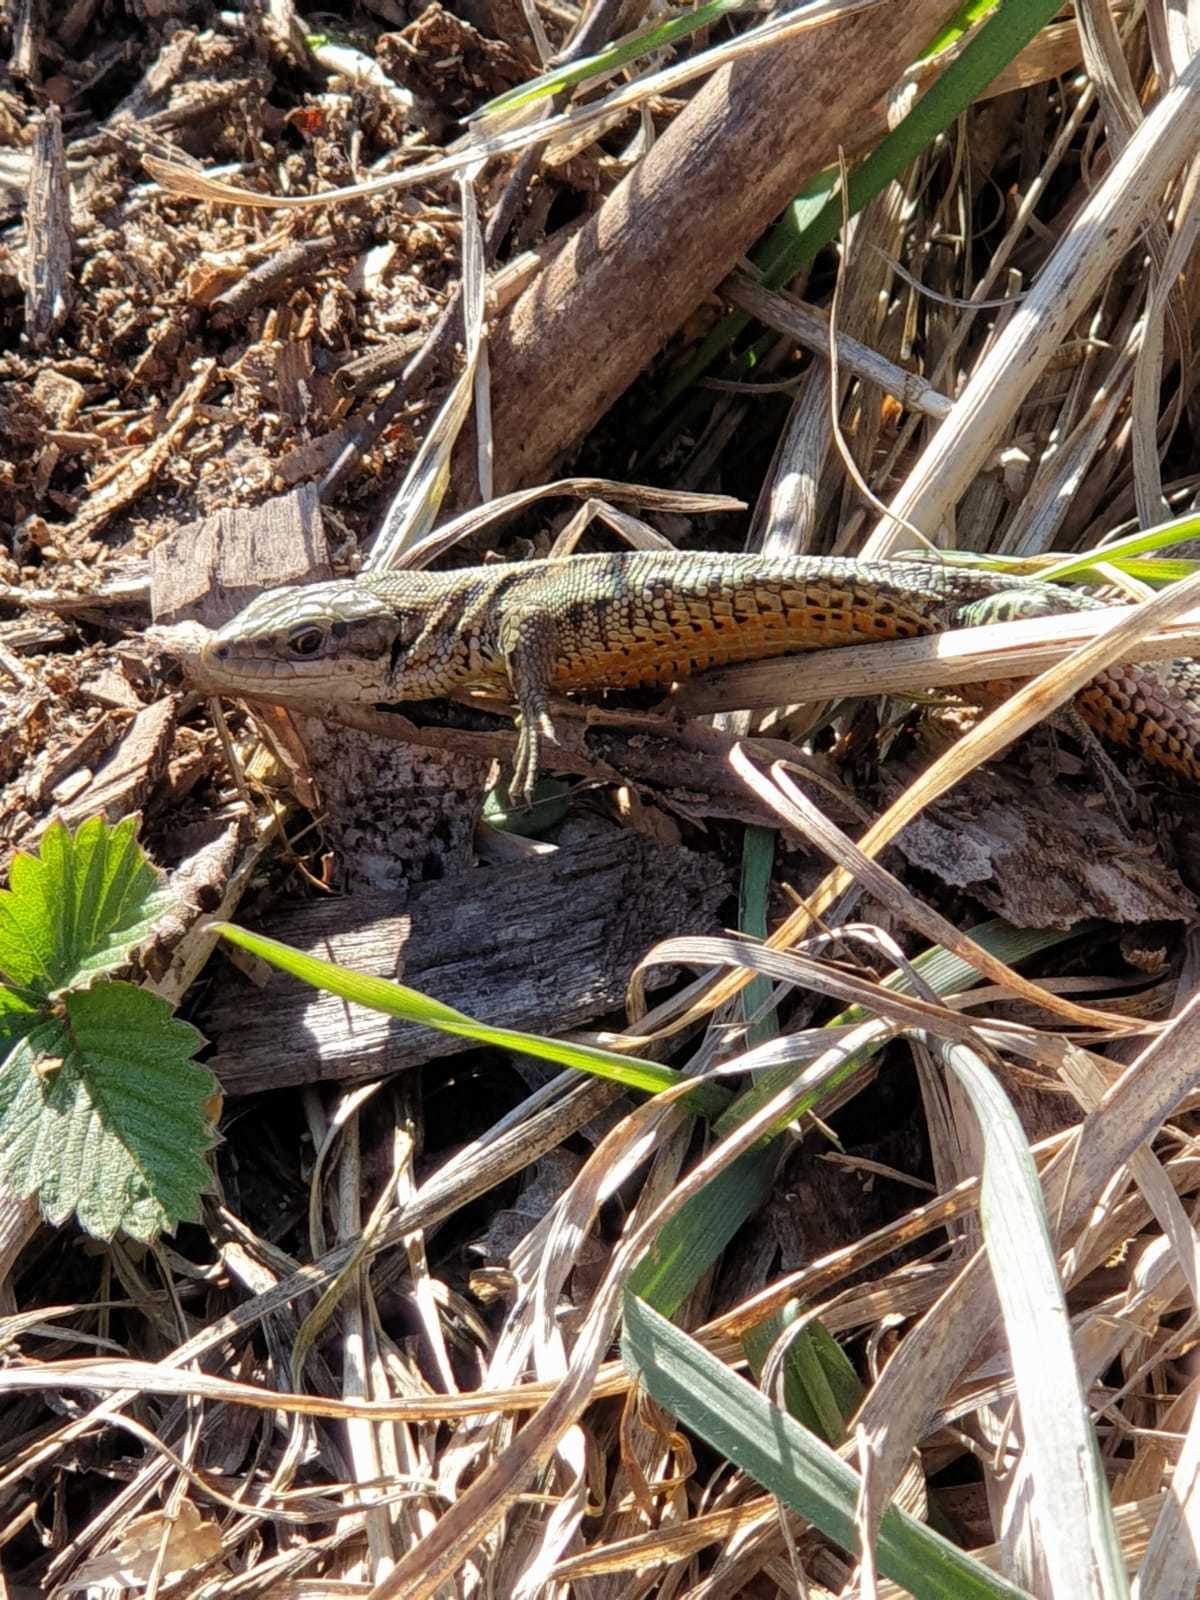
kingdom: Animalia
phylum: Chordata
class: Squamata
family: Lacertidae
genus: Zootoca
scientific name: Zootoca vivipara
